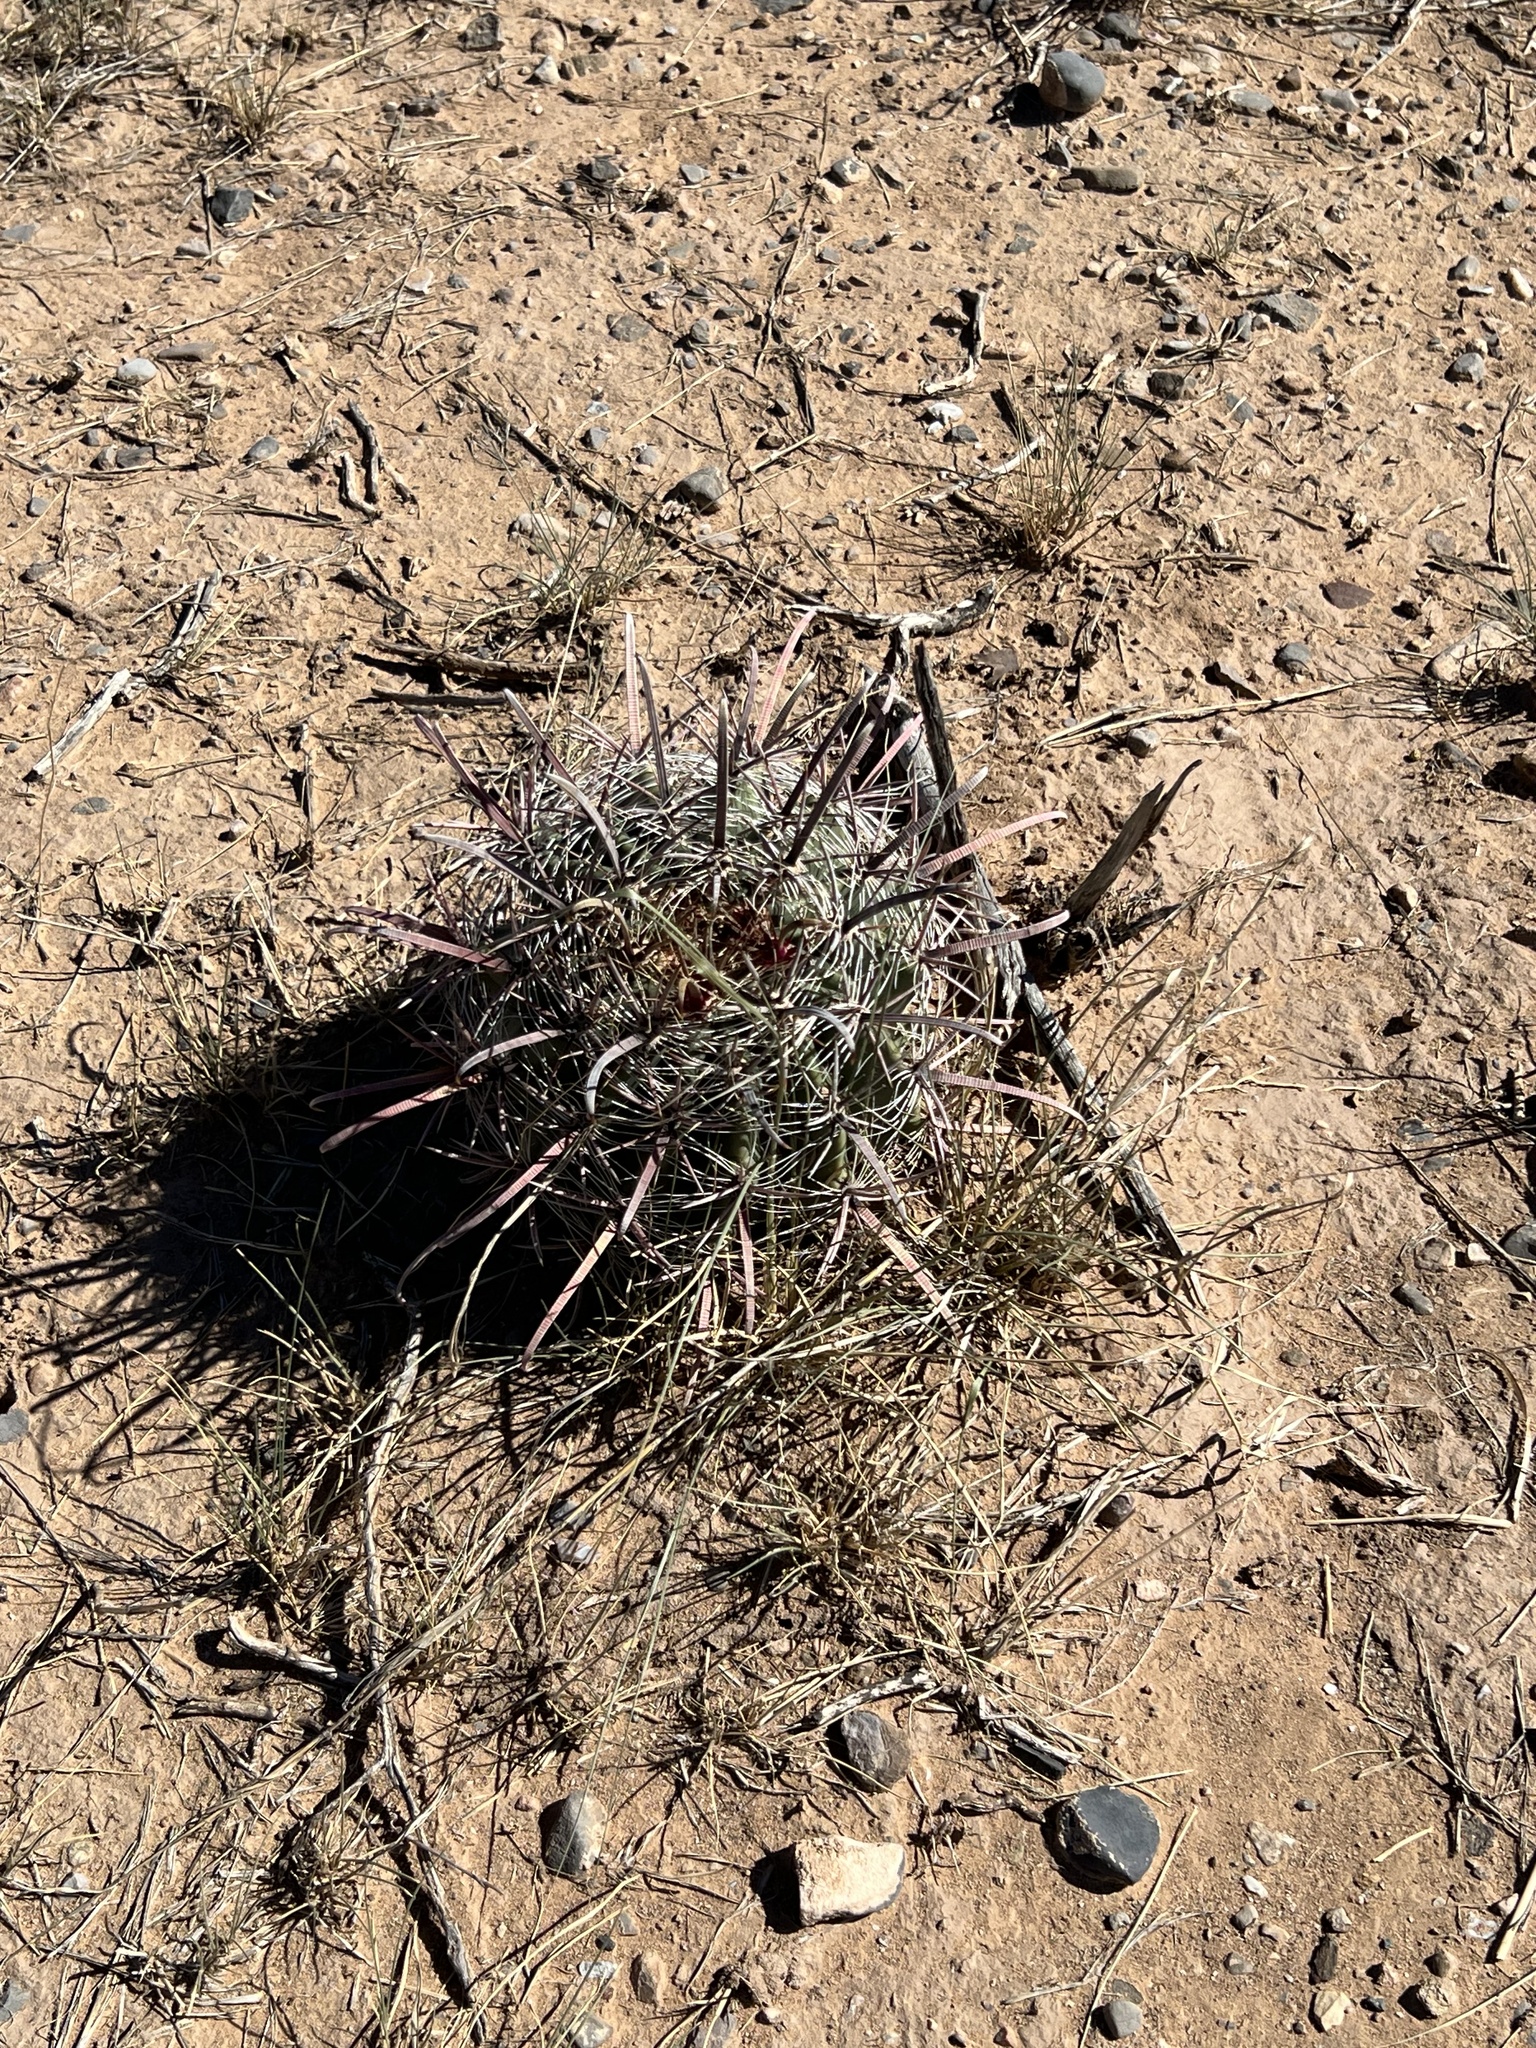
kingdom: Plantae
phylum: Tracheophyta
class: Magnoliopsida
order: Caryophyllales
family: Cactaceae
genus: Ferocactus
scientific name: Ferocactus wislizeni
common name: Candy barrel cactus
